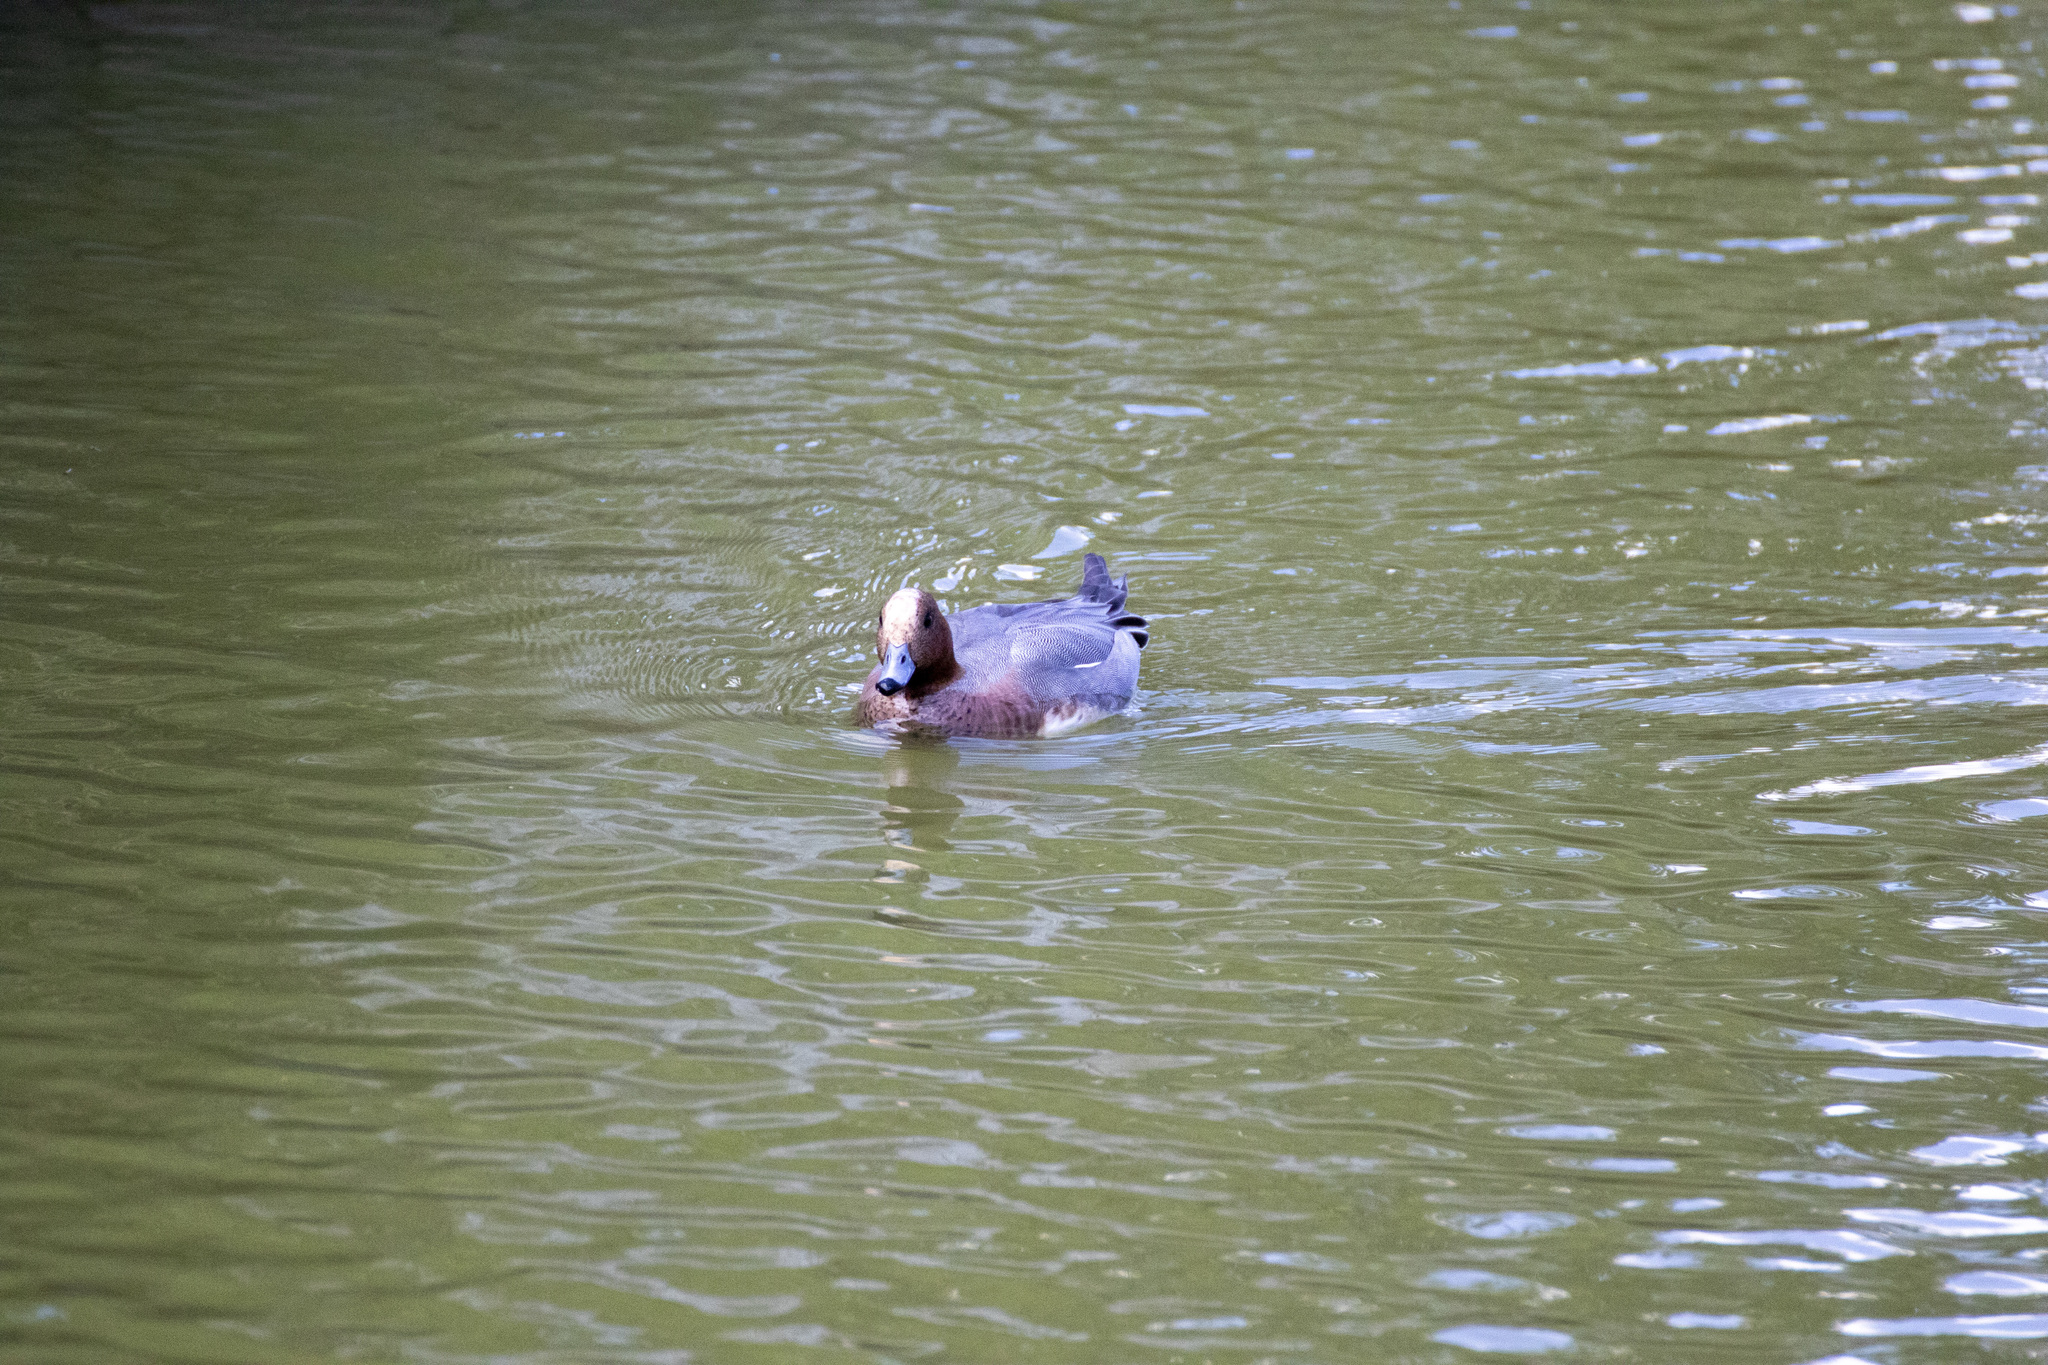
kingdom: Animalia
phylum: Chordata
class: Aves
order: Anseriformes
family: Anatidae
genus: Mareca
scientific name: Mareca penelope
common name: Eurasian wigeon
